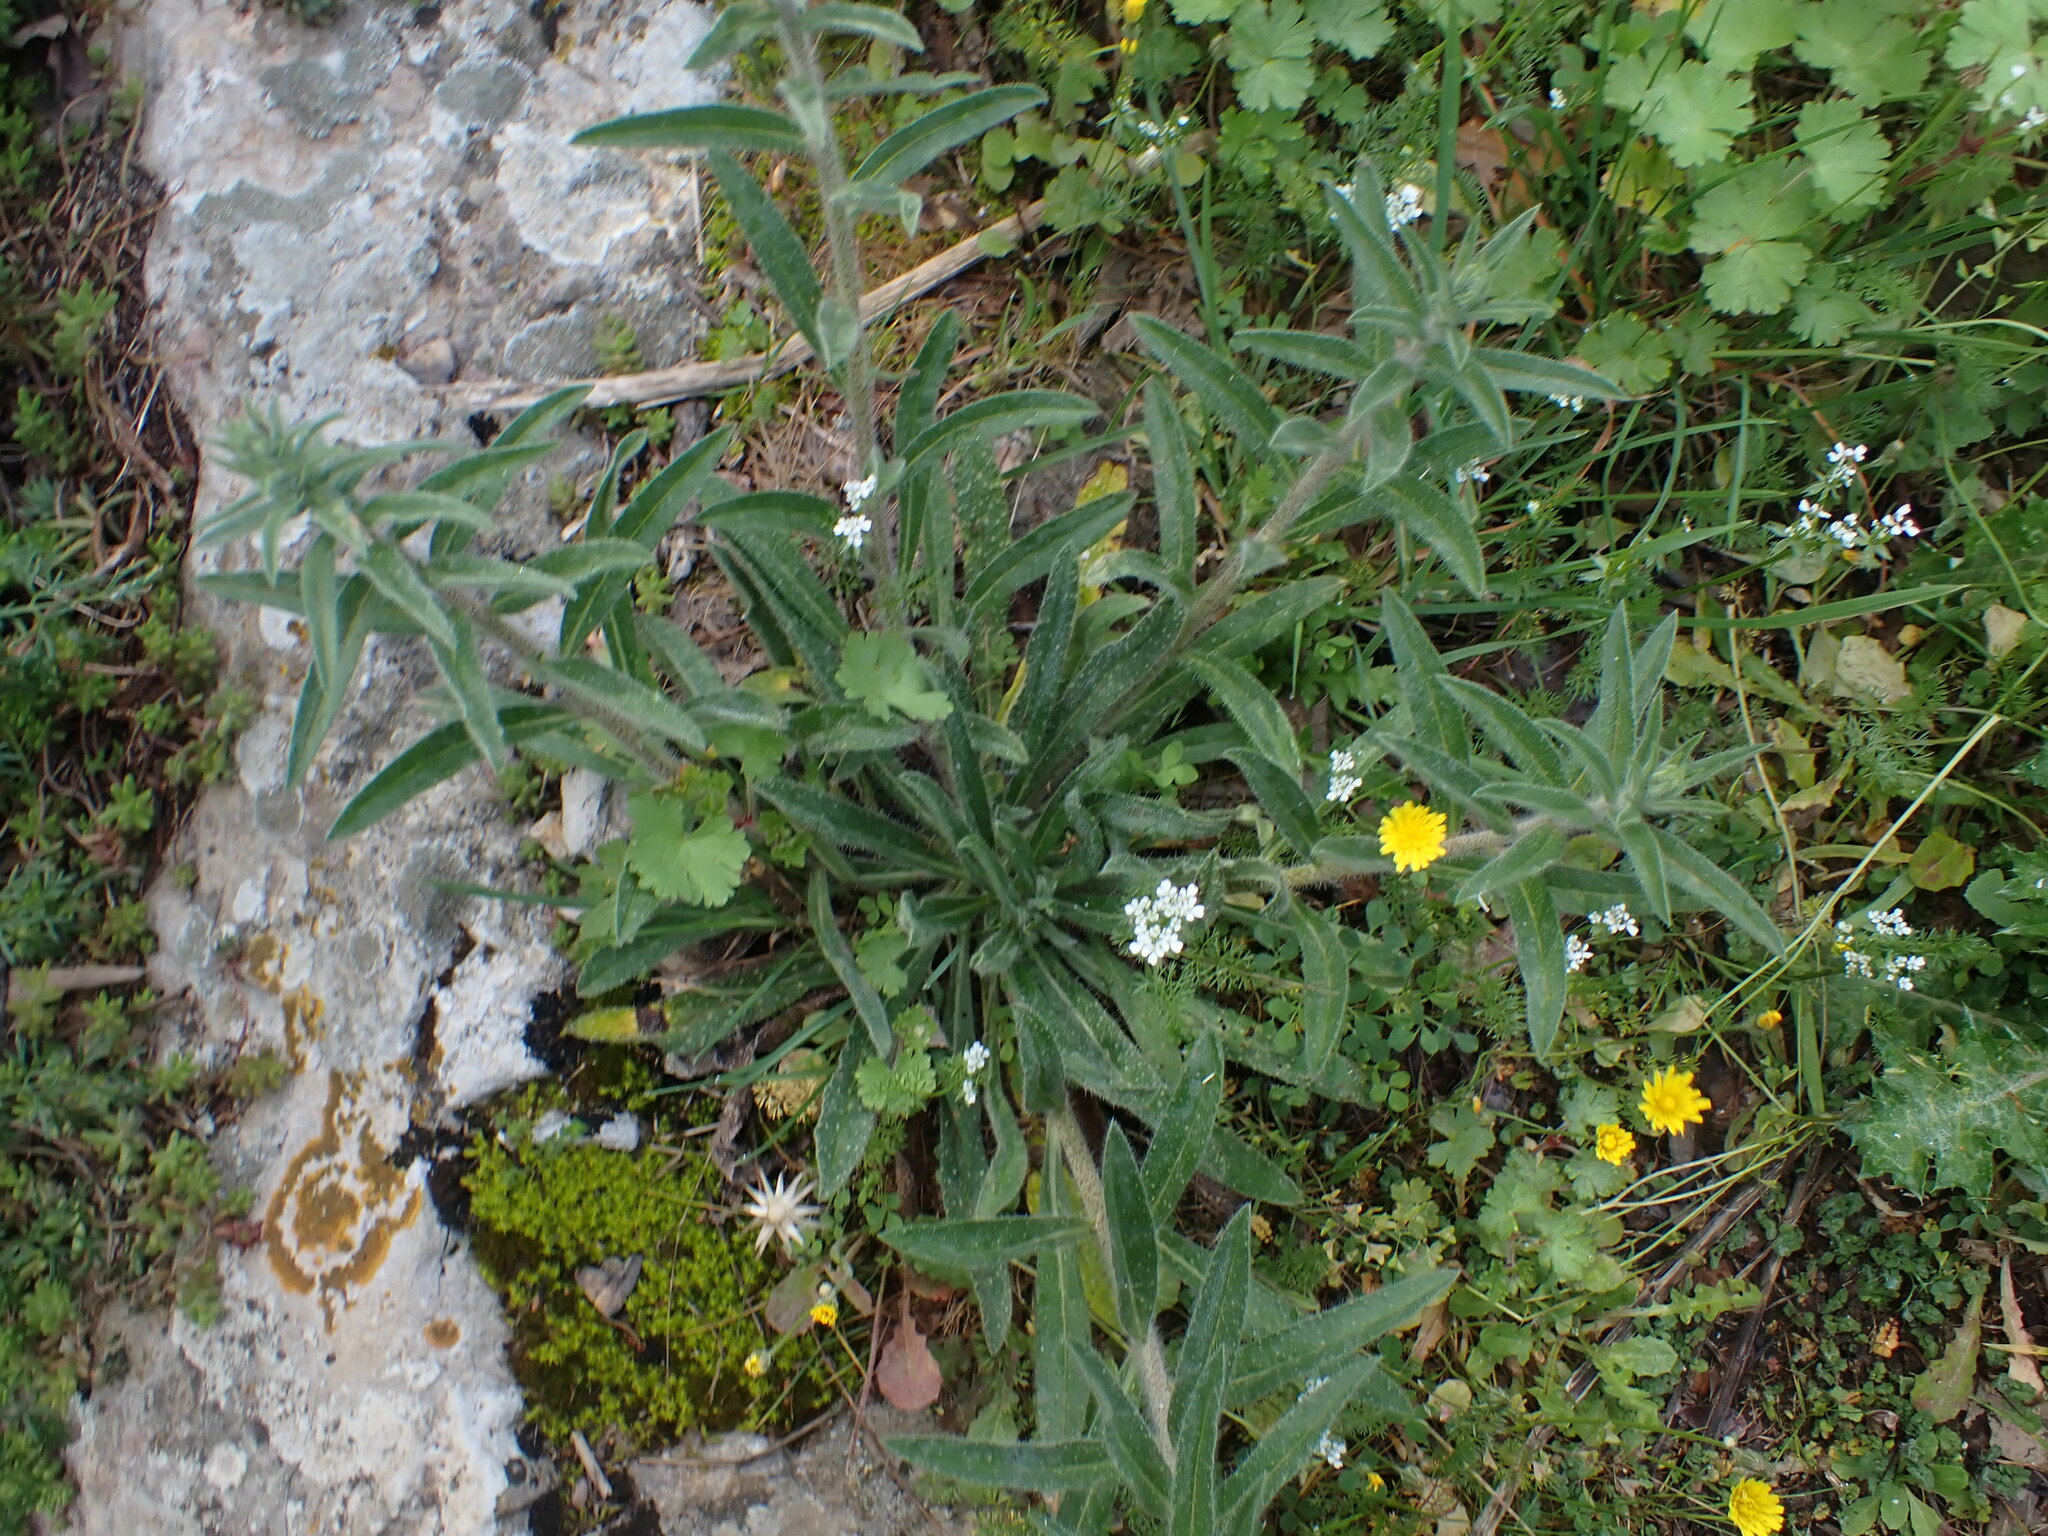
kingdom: Plantae
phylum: Tracheophyta
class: Magnoliopsida
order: Boraginales
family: Boraginaceae
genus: Echium
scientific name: Echium vulgare
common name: Common viper's bugloss
